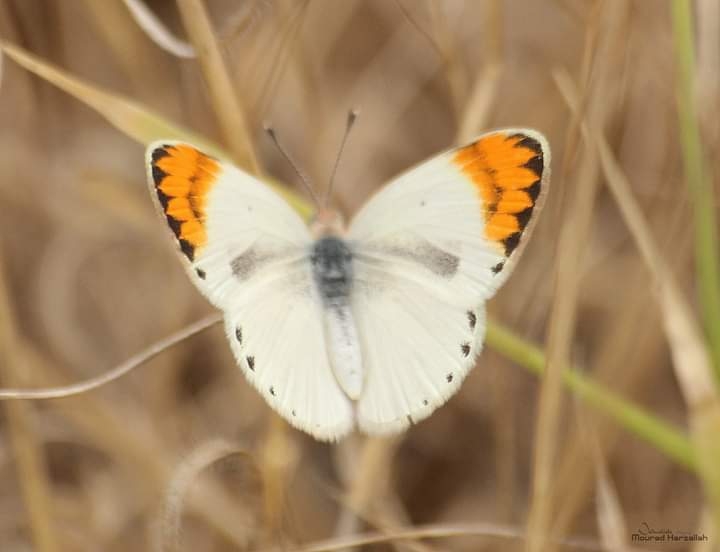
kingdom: Animalia
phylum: Arthropoda
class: Insecta
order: Lepidoptera
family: Pieridae
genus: Colotis
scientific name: Colotis evagore
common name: Desert orange-tip
